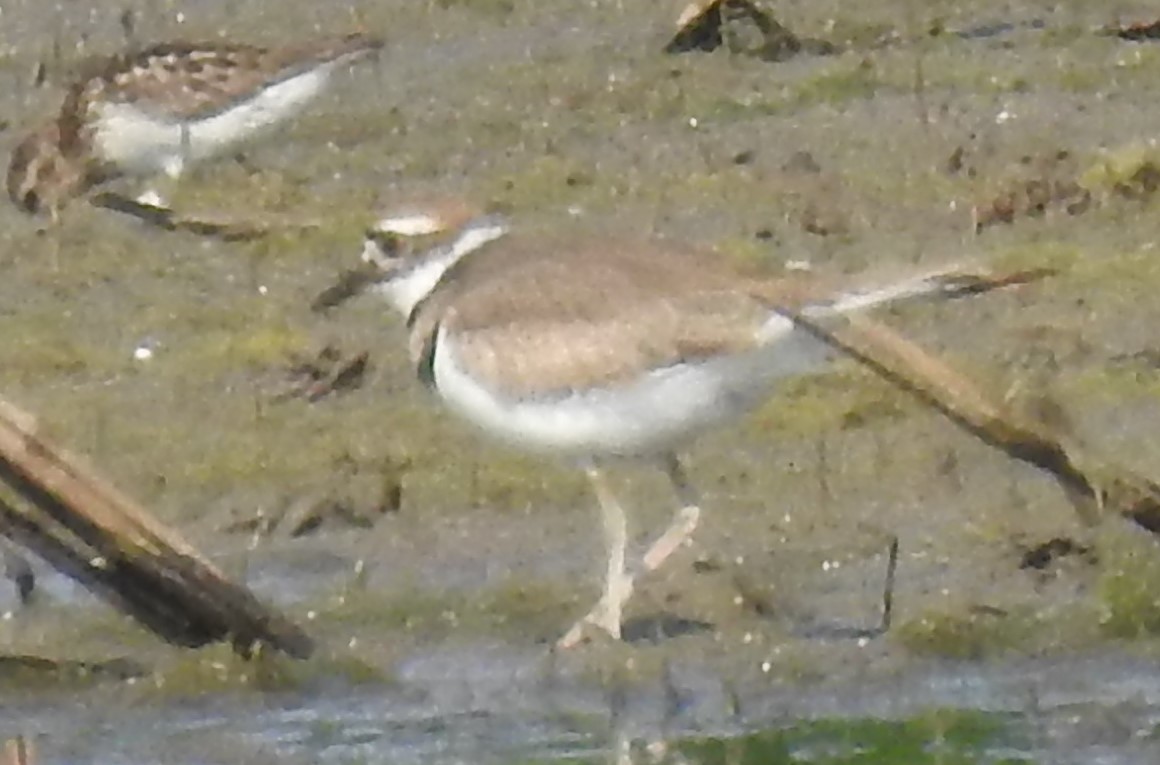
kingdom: Animalia
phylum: Chordata
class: Aves
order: Charadriiformes
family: Charadriidae
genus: Charadrius
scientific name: Charadrius vociferus
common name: Killdeer
